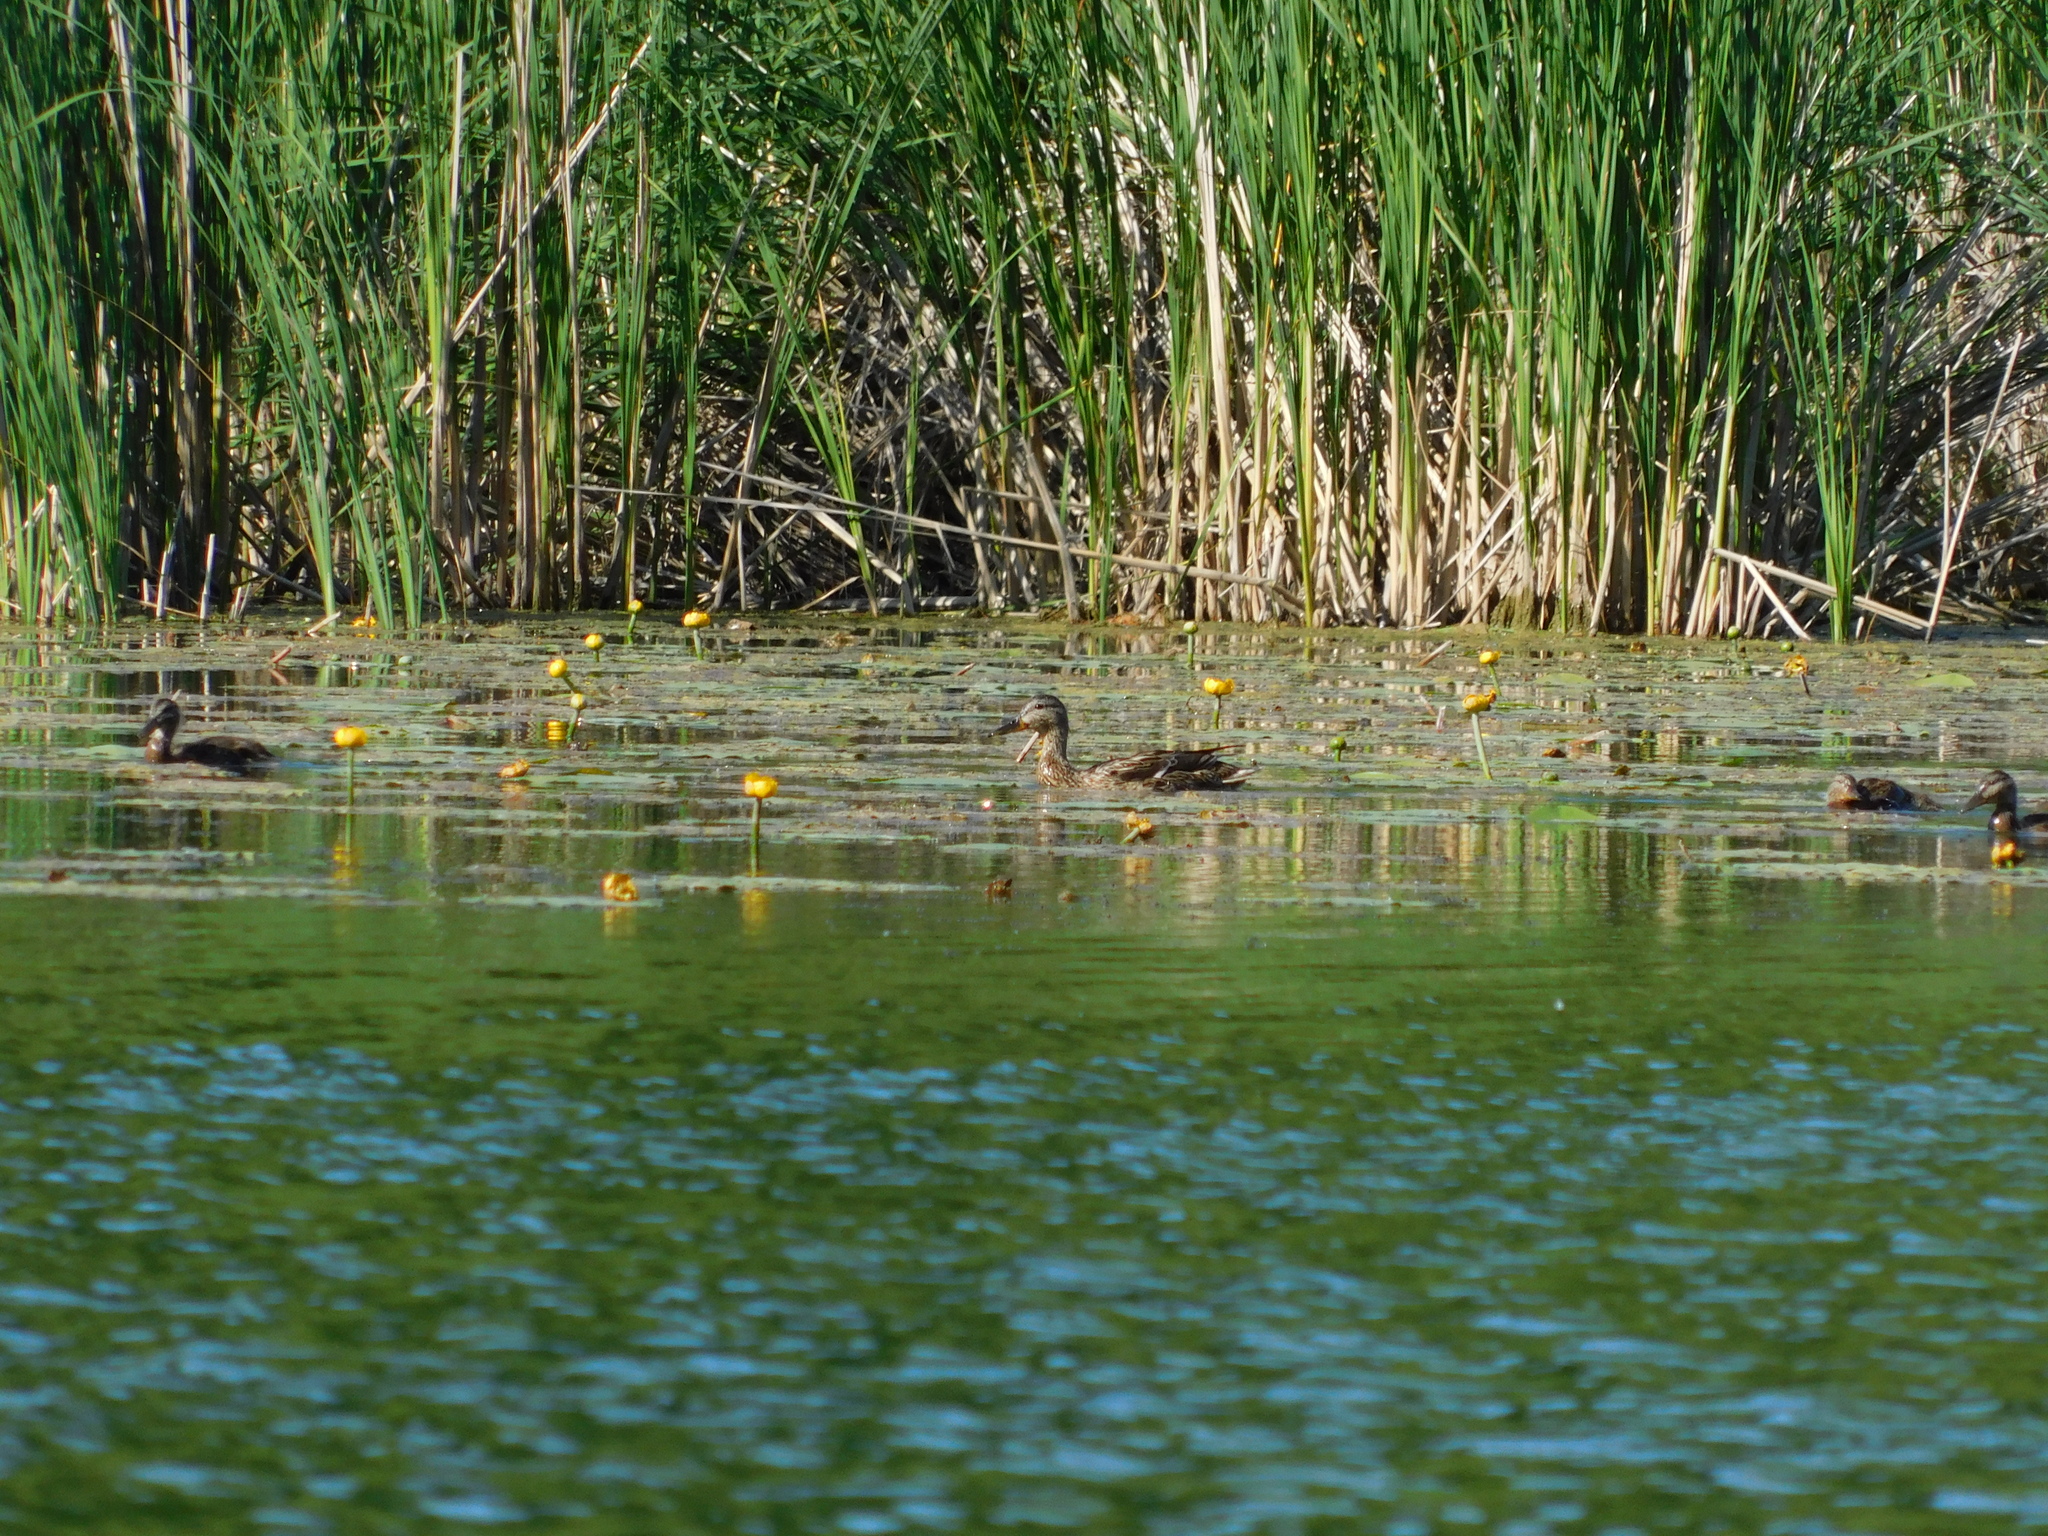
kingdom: Animalia
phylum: Chordata
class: Aves
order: Anseriformes
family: Anatidae
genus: Anas
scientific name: Anas platyrhynchos
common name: Mallard
